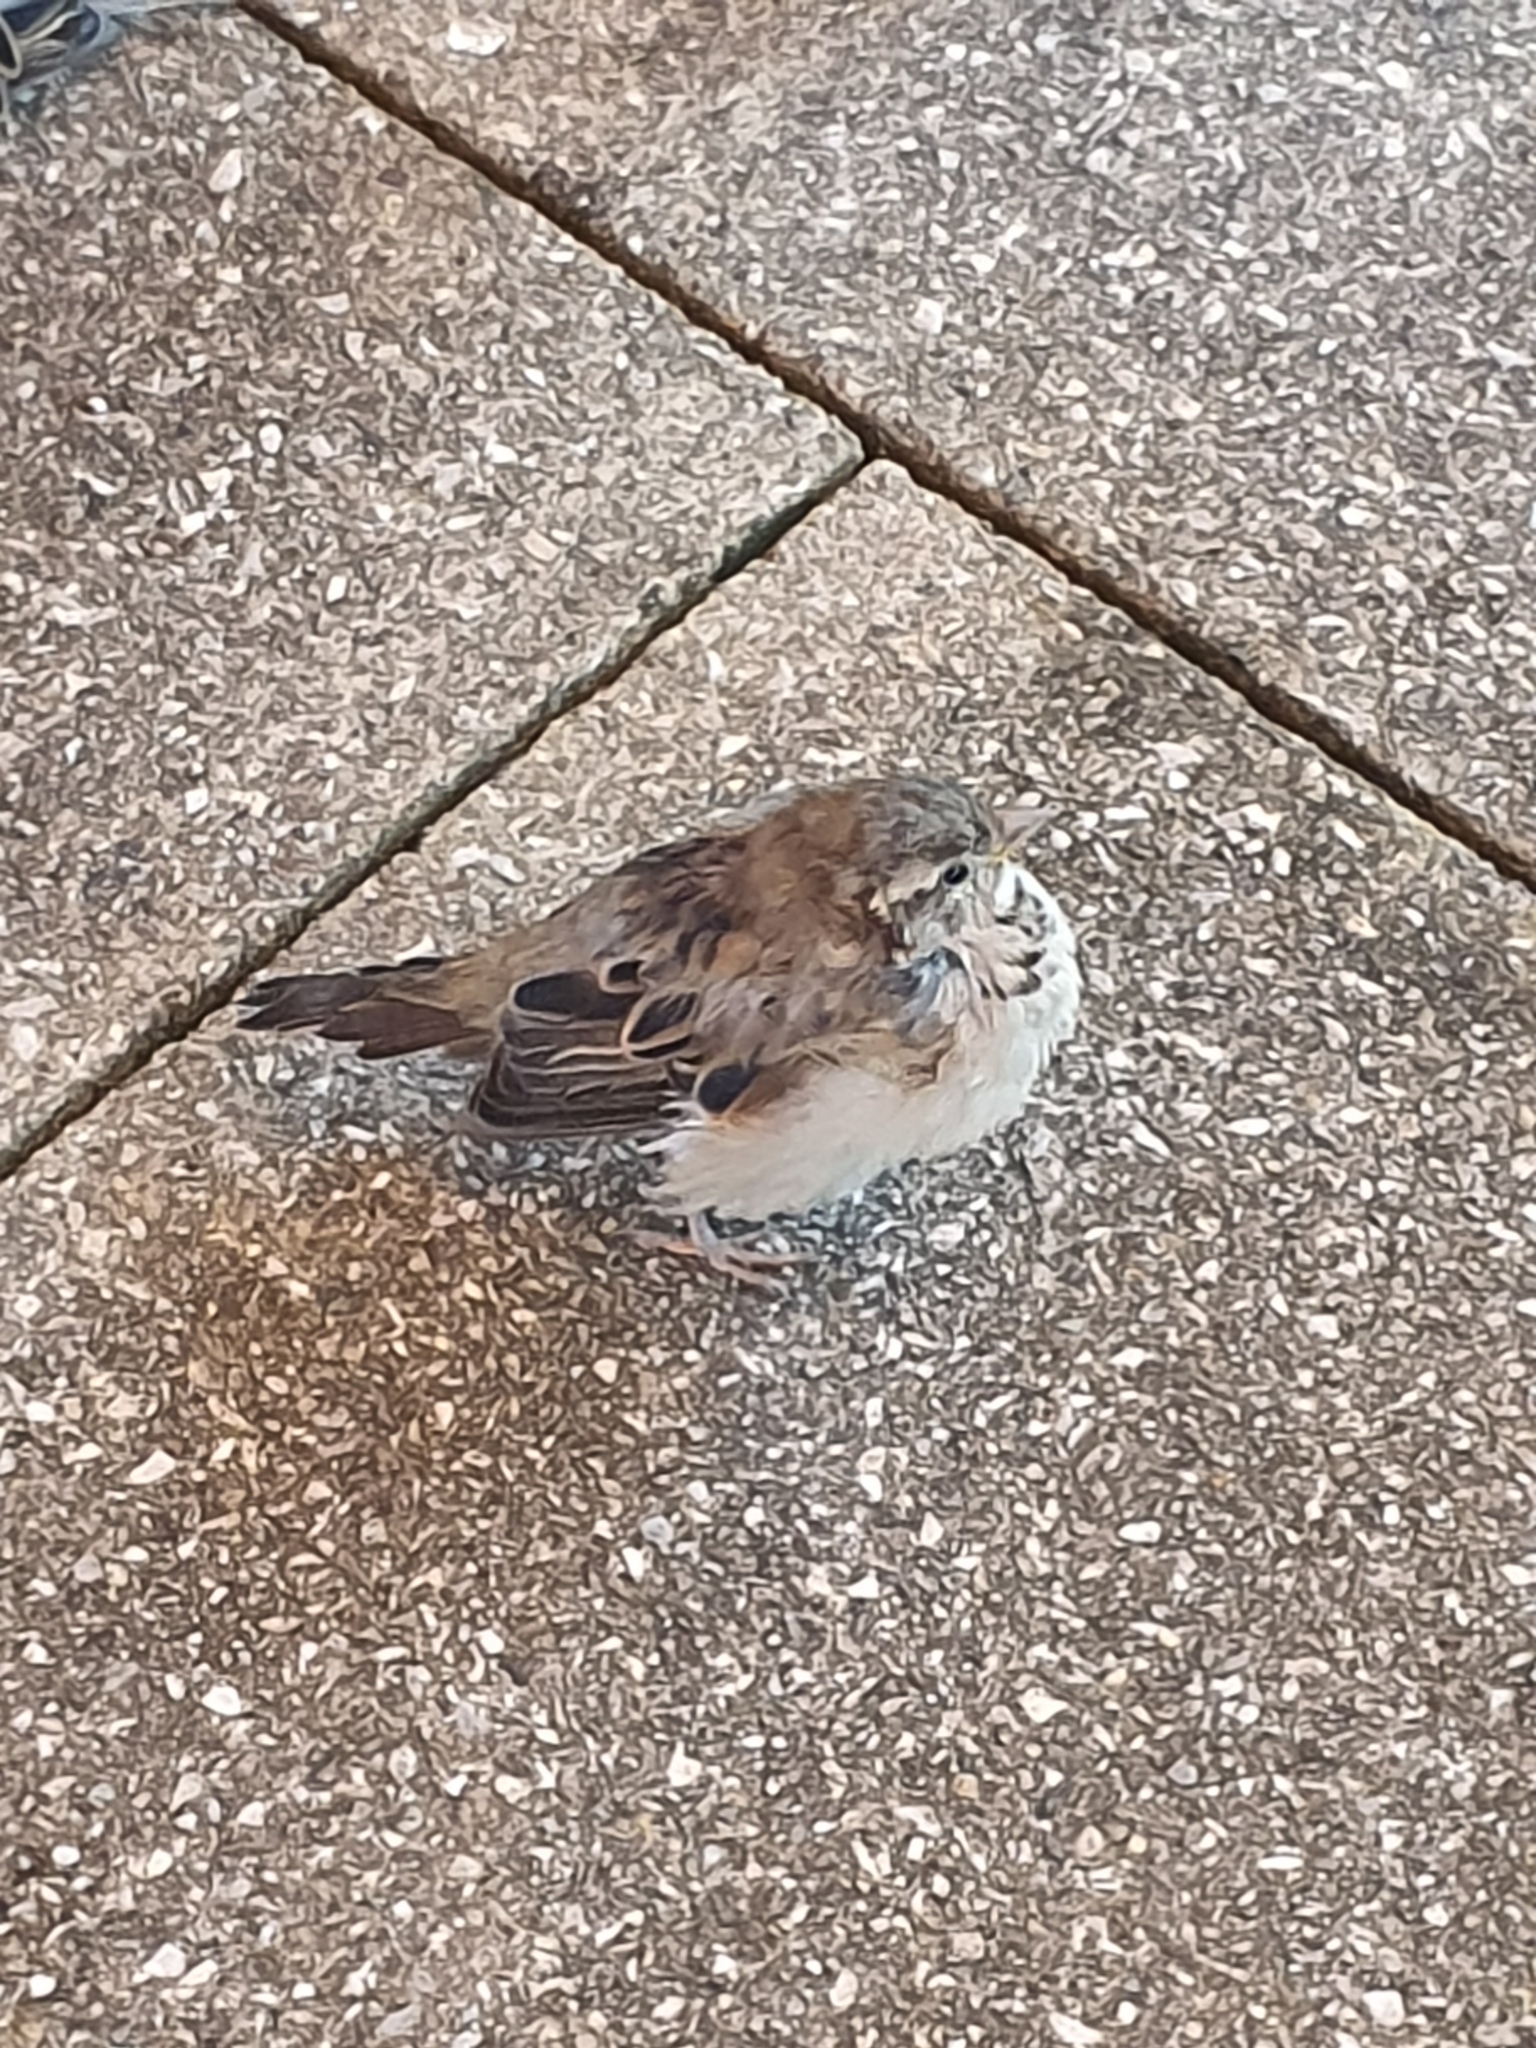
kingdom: Animalia
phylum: Chordata
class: Aves
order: Passeriformes
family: Passeridae
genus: Passer
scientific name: Passer domesticus
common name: House sparrow
